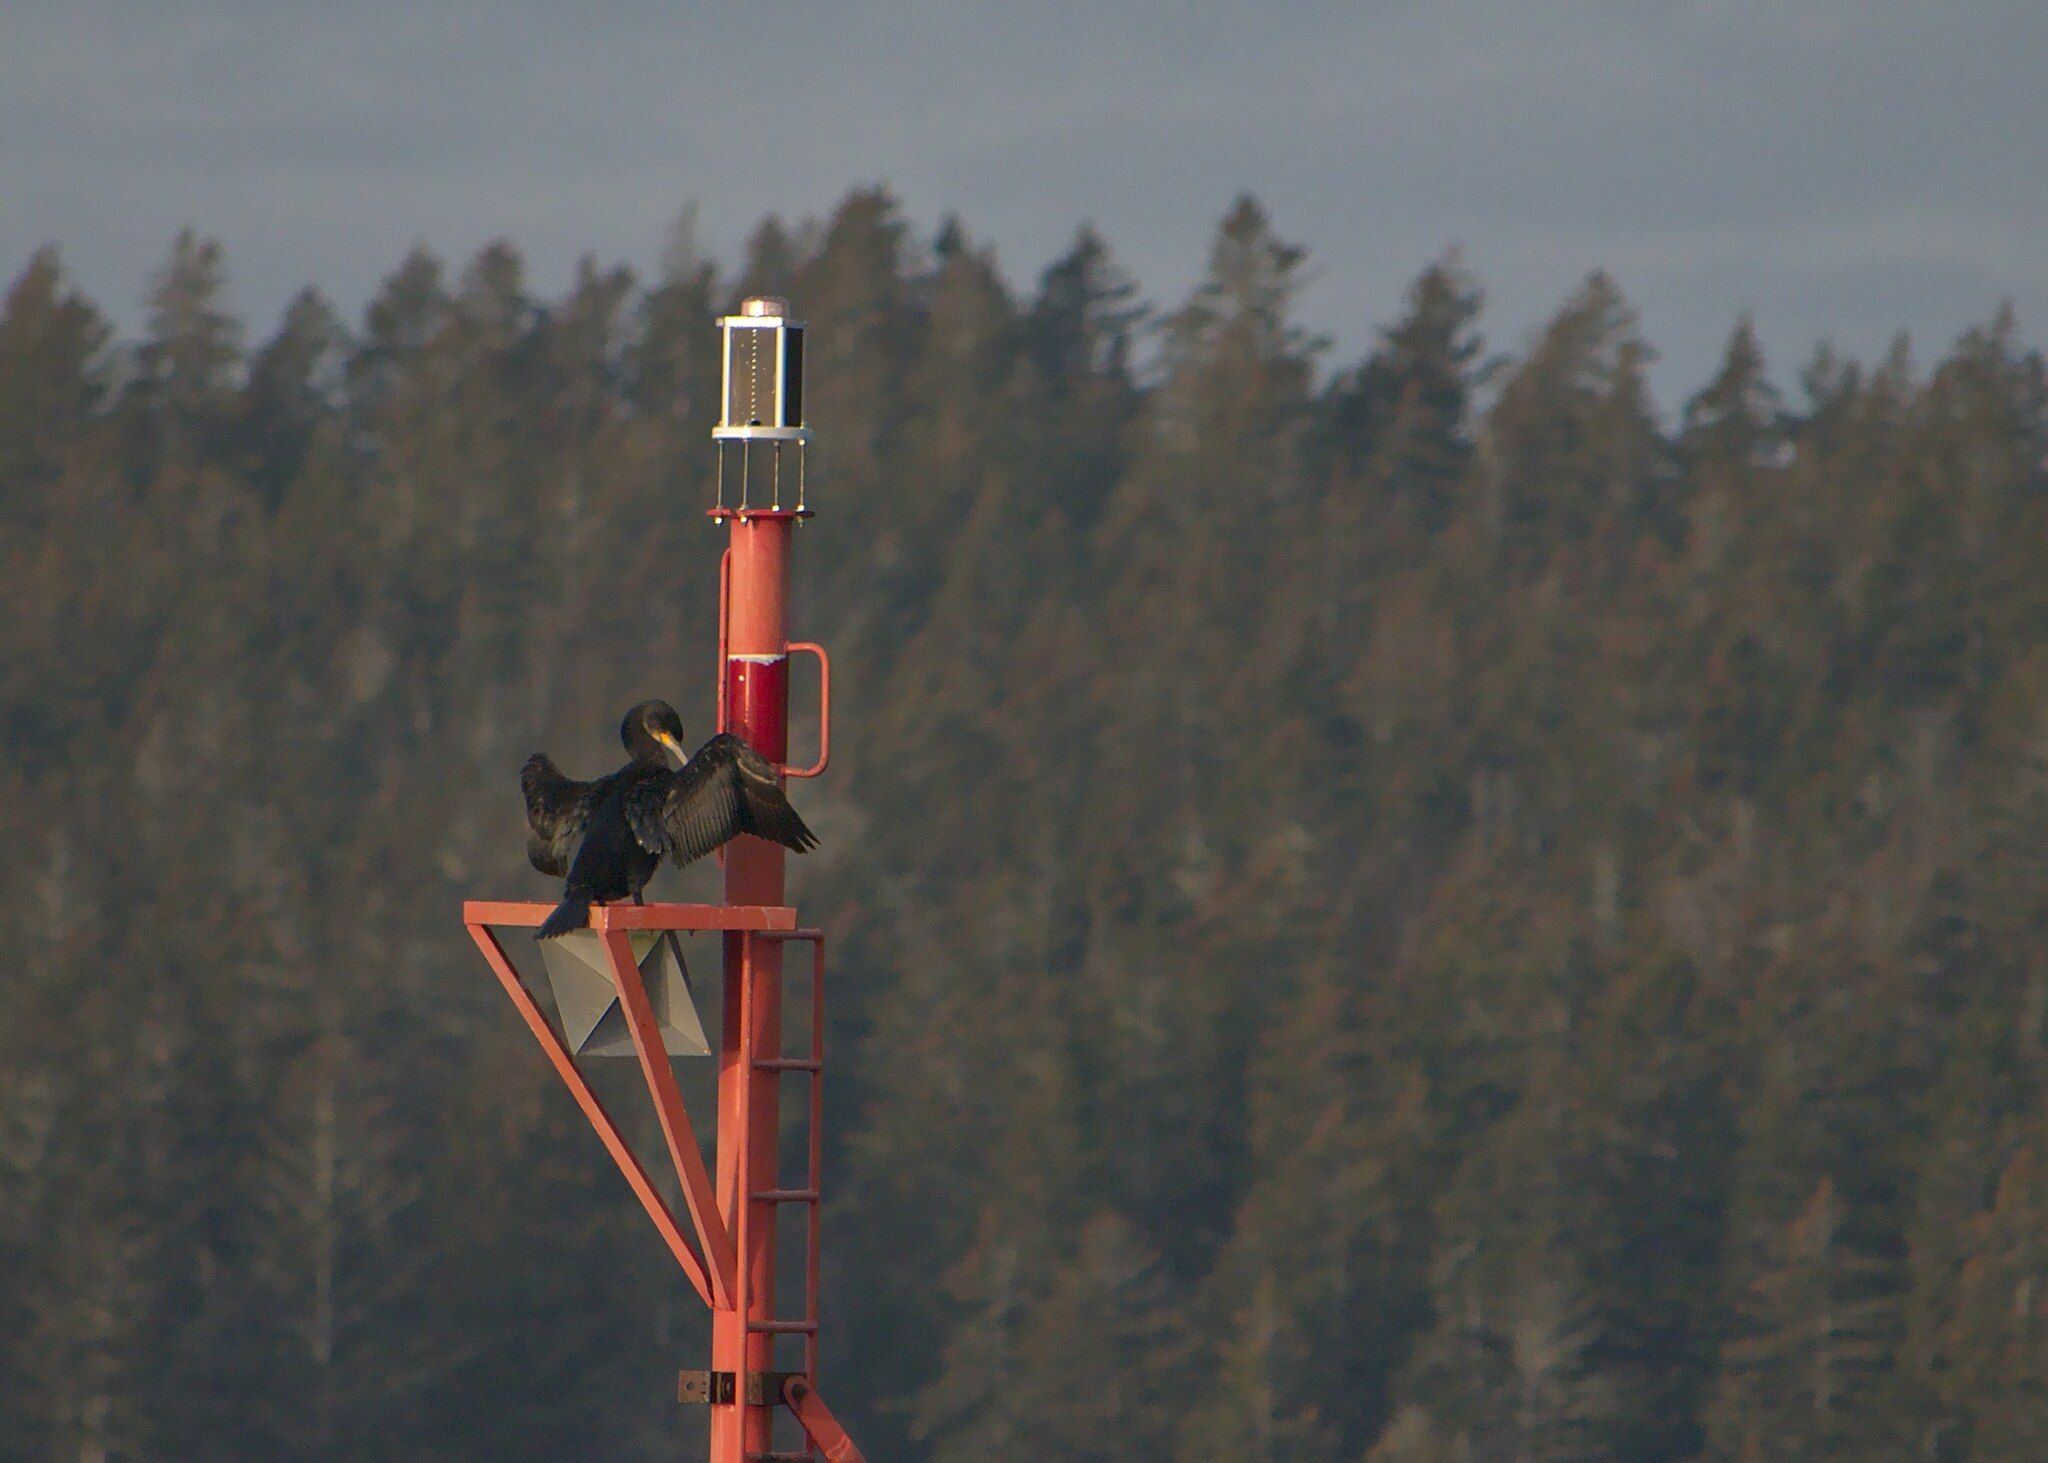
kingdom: Animalia
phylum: Chordata
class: Aves
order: Suliformes
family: Phalacrocoracidae
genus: Phalacrocorax
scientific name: Phalacrocorax carbo
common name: Great cormorant
